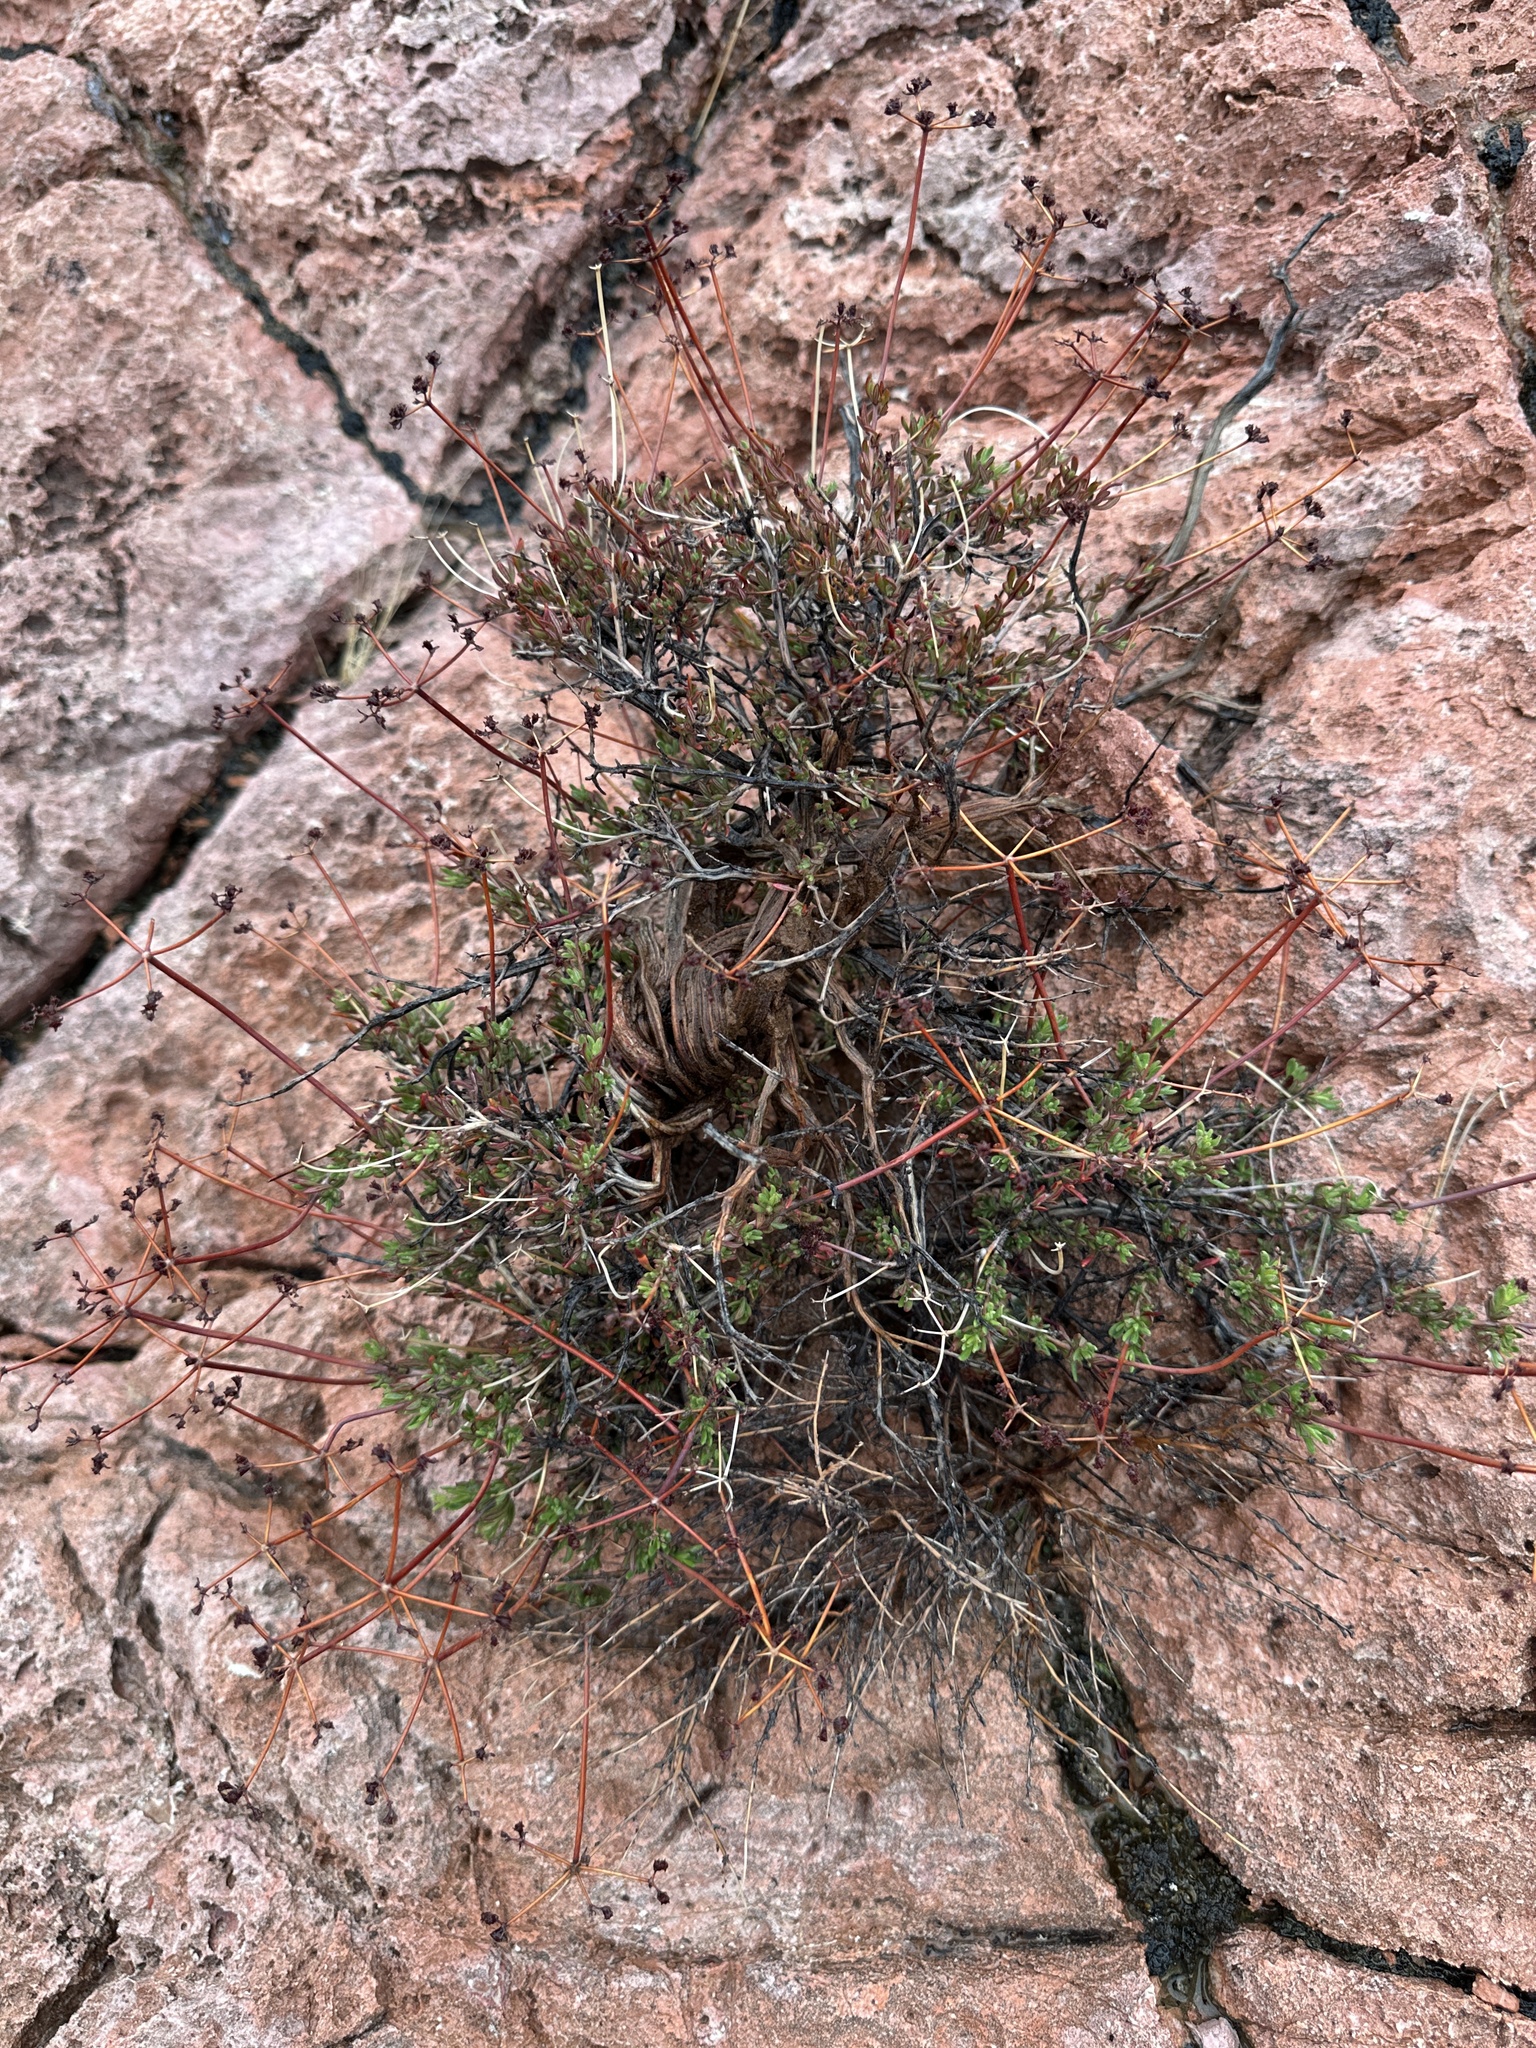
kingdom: Plantae
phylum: Tracheophyta
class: Magnoliopsida
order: Caryophyllales
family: Polygonaceae
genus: Eriogonum
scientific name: Eriogonum fasciculatum
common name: California wild buckwheat
